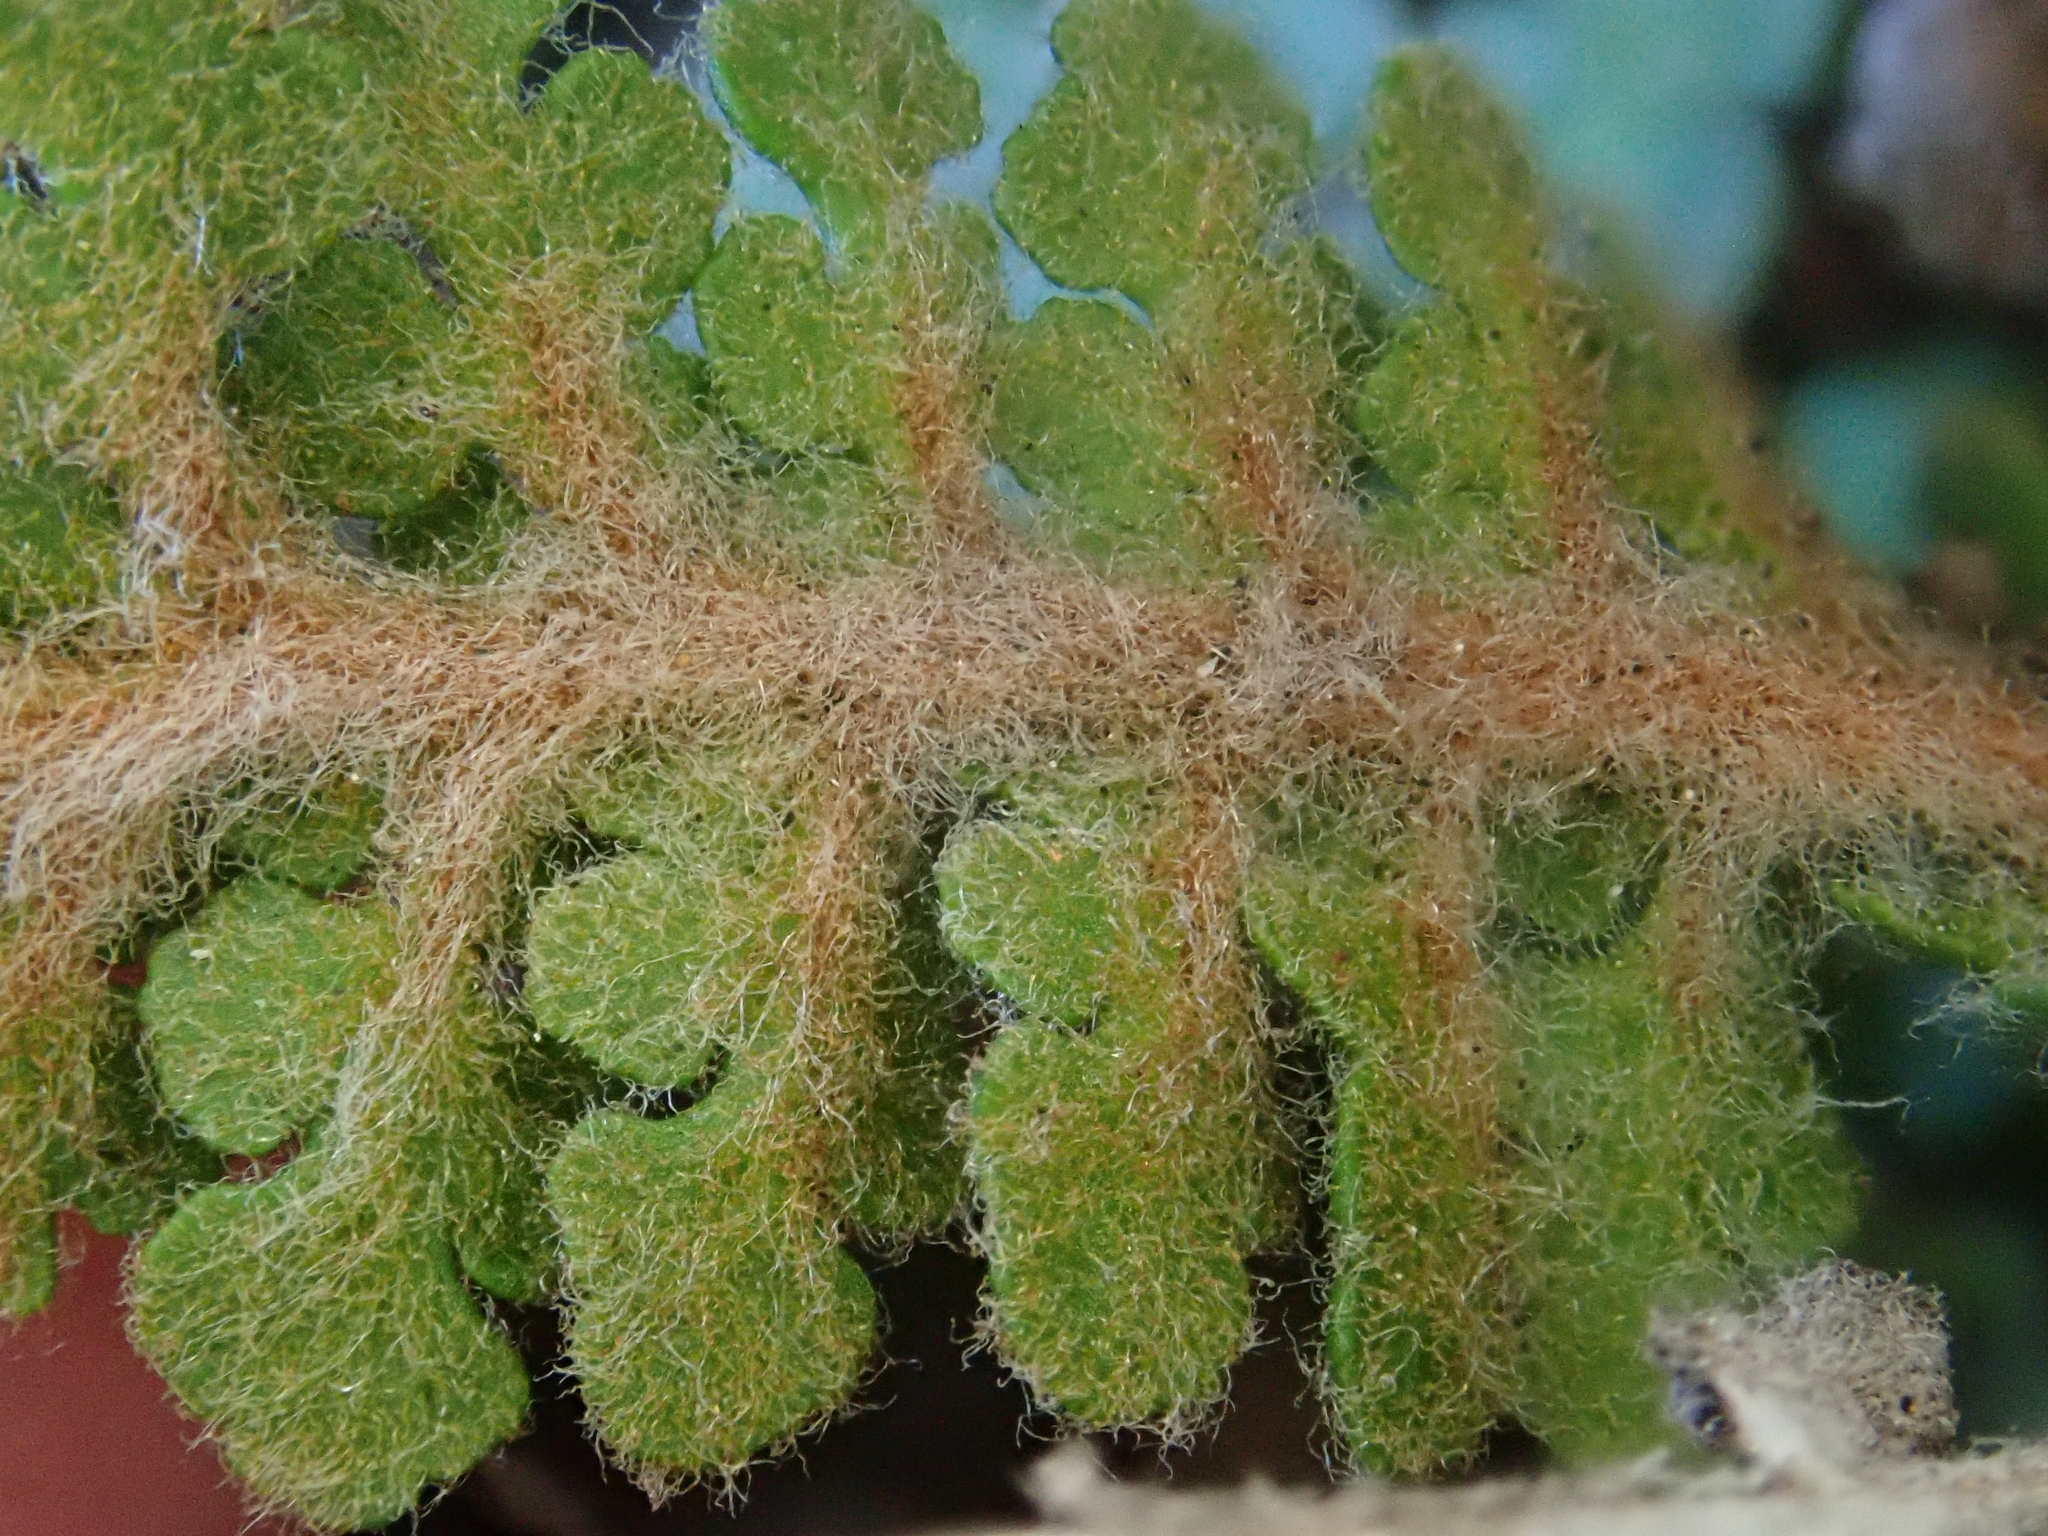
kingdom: Plantae
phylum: Tracheophyta
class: Polypodiopsida
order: Polypodiales
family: Pteridaceae
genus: Cosentinia
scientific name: Cosentinia vellea
